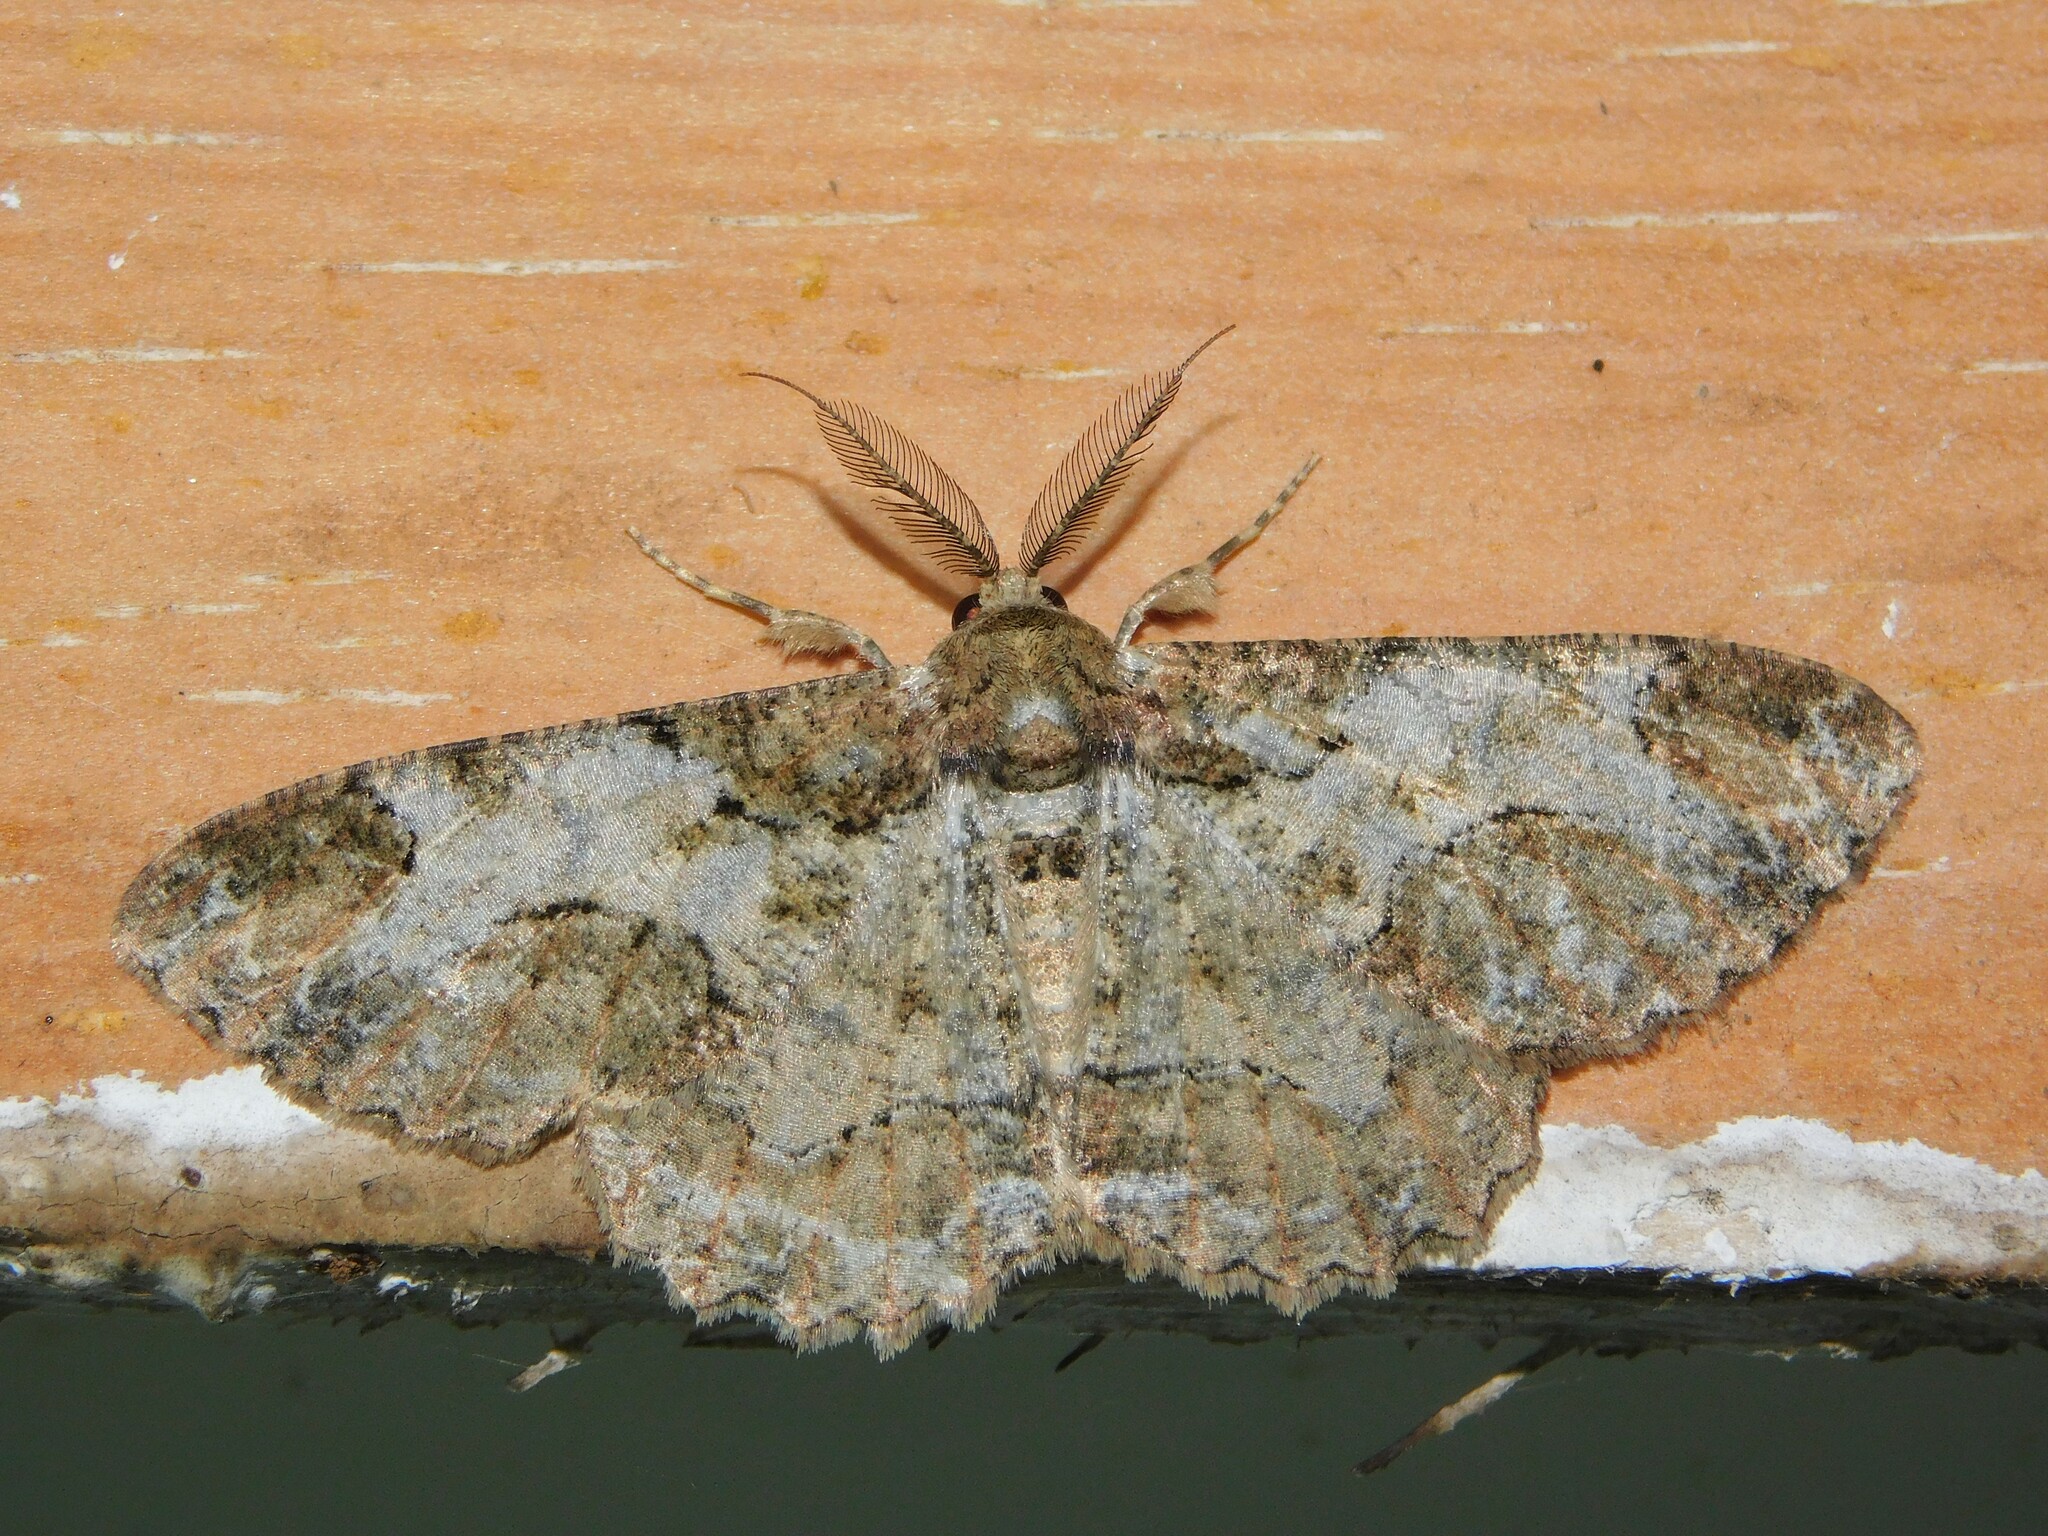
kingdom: Animalia
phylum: Arthropoda
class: Insecta
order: Lepidoptera
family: Geometridae
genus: Colocleora
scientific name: Colocleora divisaria
